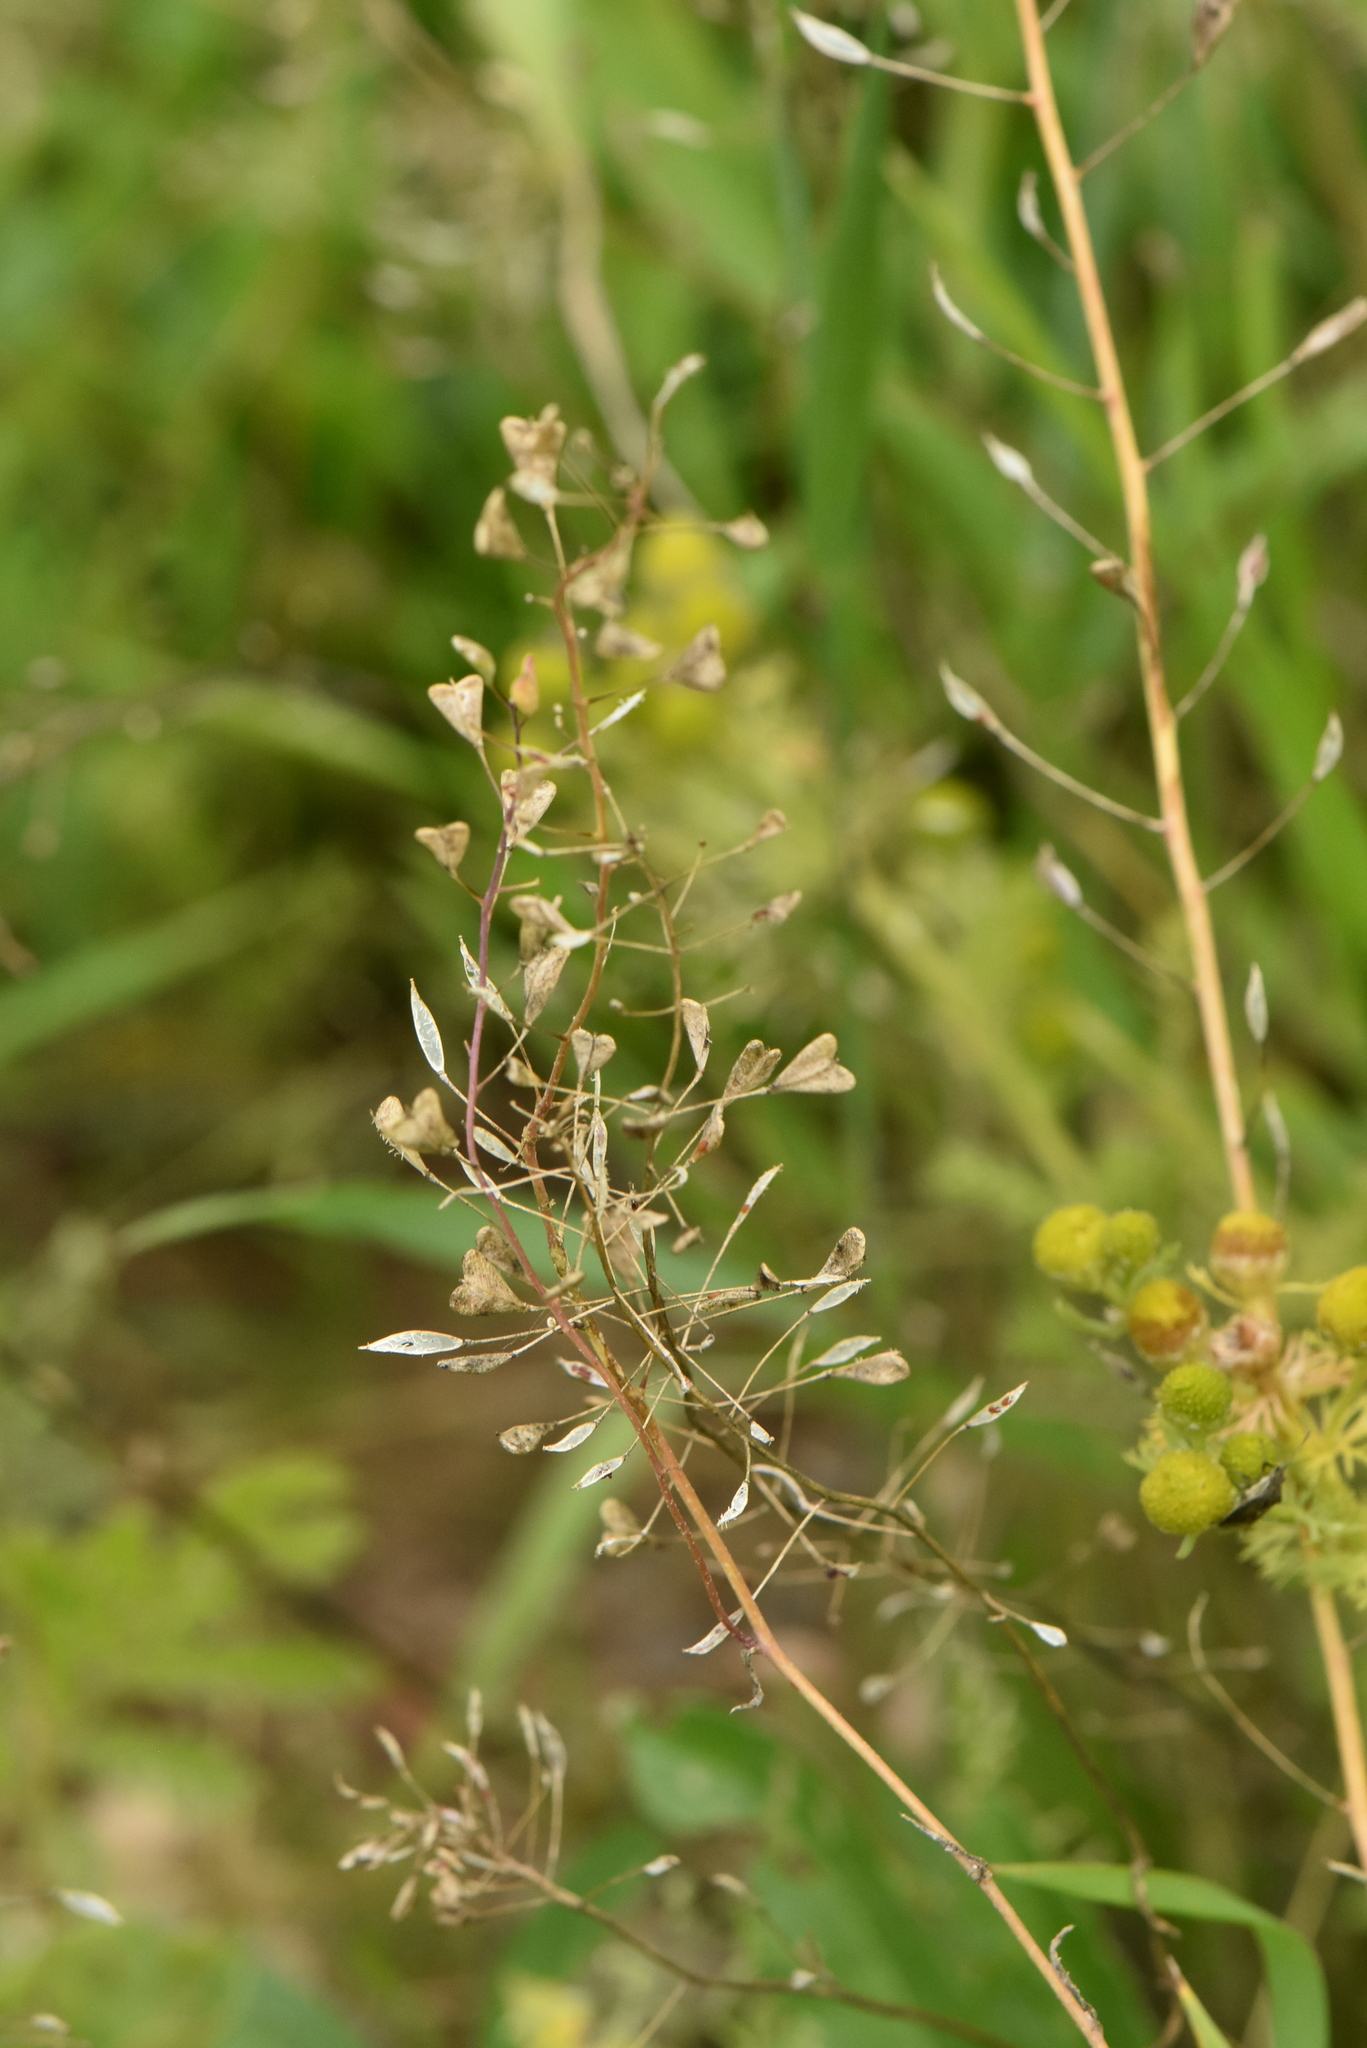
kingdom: Plantae
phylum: Tracheophyta
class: Magnoliopsida
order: Brassicales
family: Brassicaceae
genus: Capsella
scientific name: Capsella bursa-pastoris
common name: Shepherd's purse
